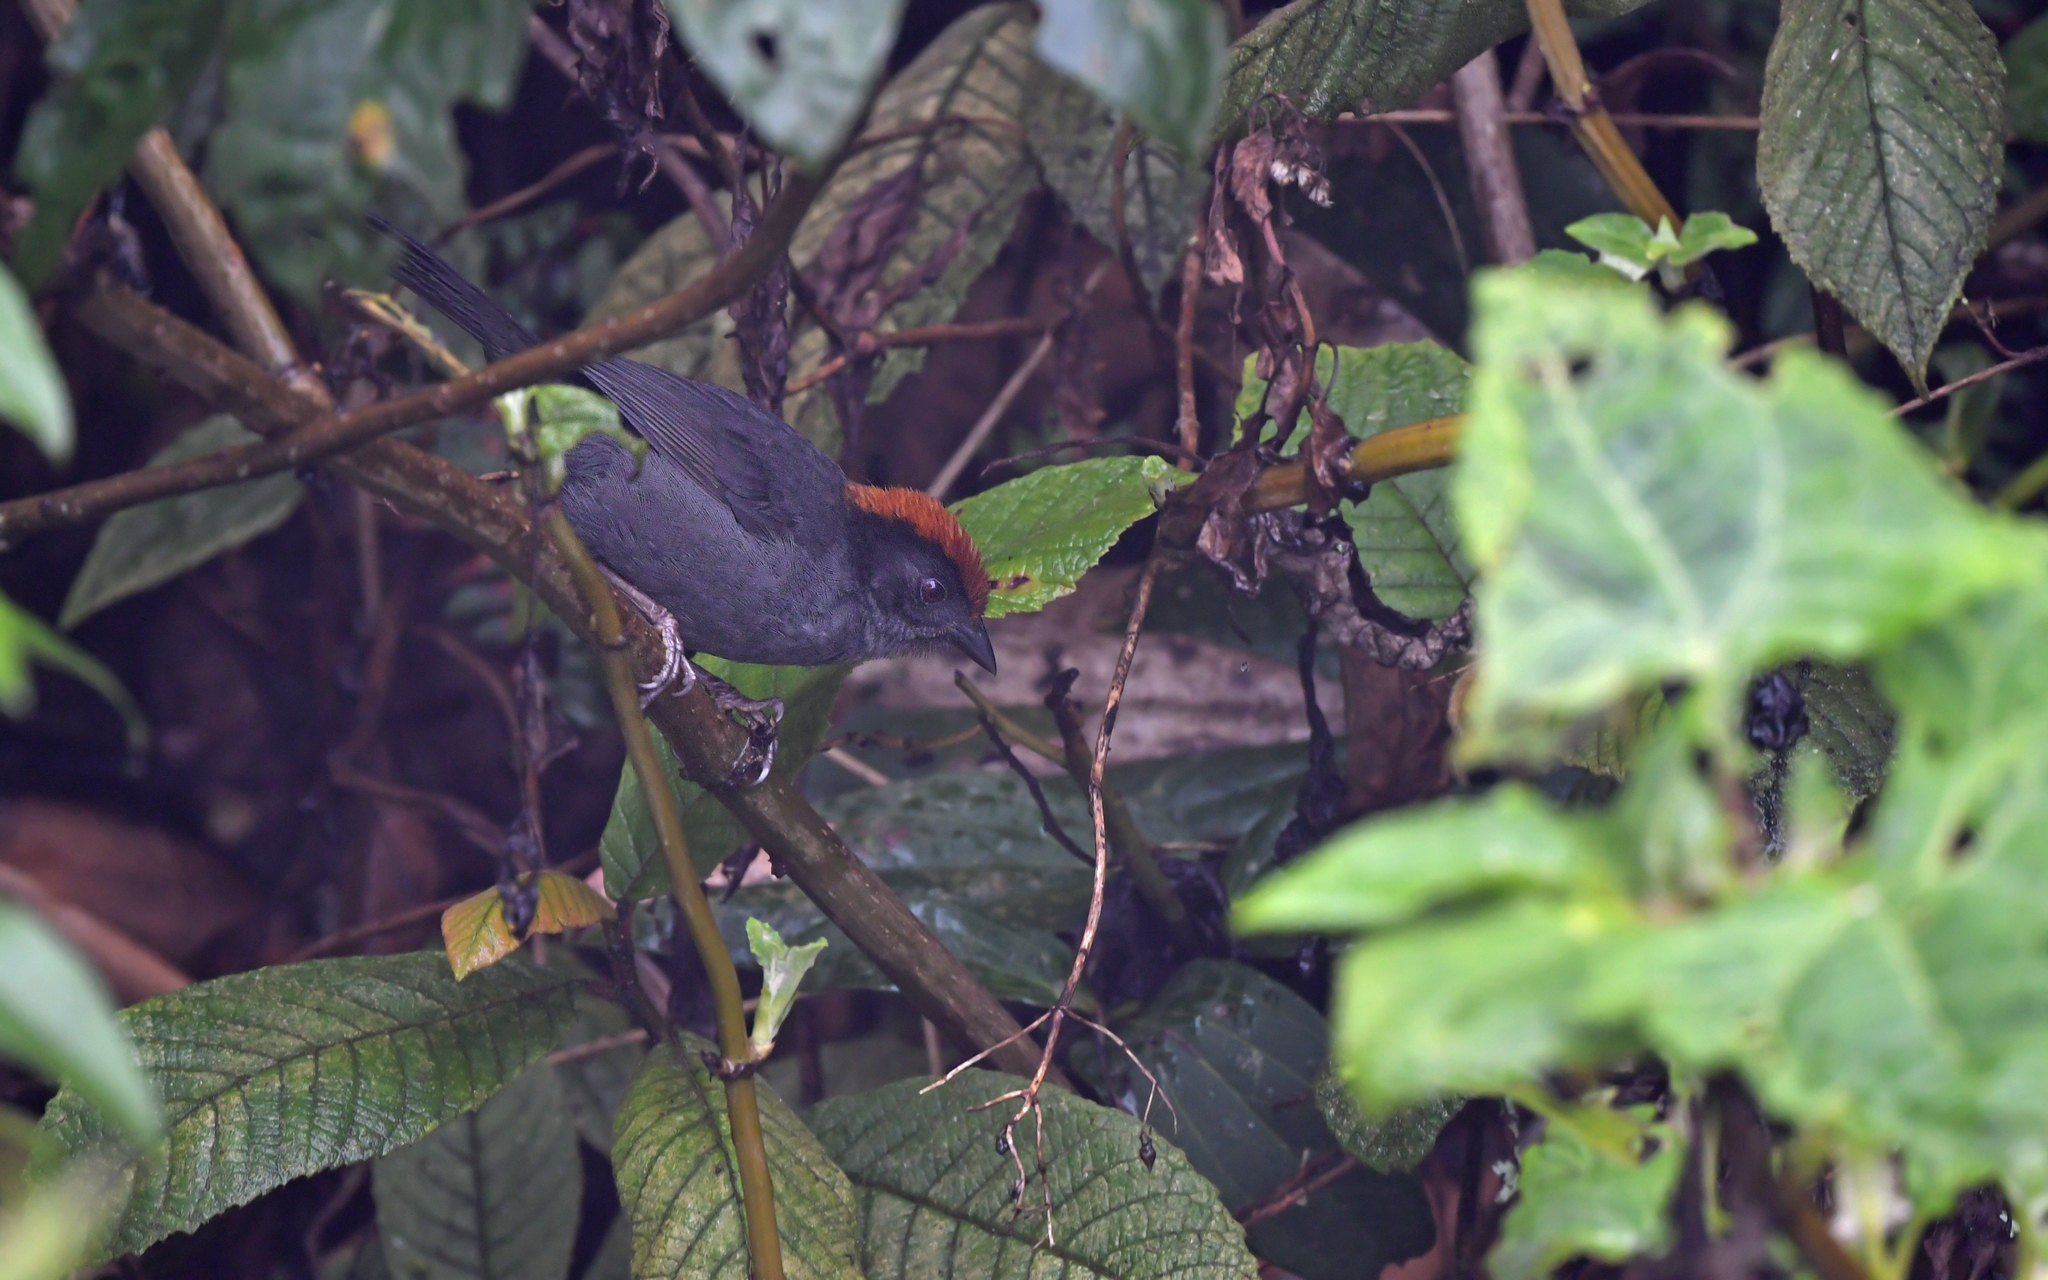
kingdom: Animalia
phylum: Chordata
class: Aves
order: Passeriformes
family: Passerellidae
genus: Atlapetes
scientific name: Atlapetes canigenis
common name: Cuzco brushfinch
